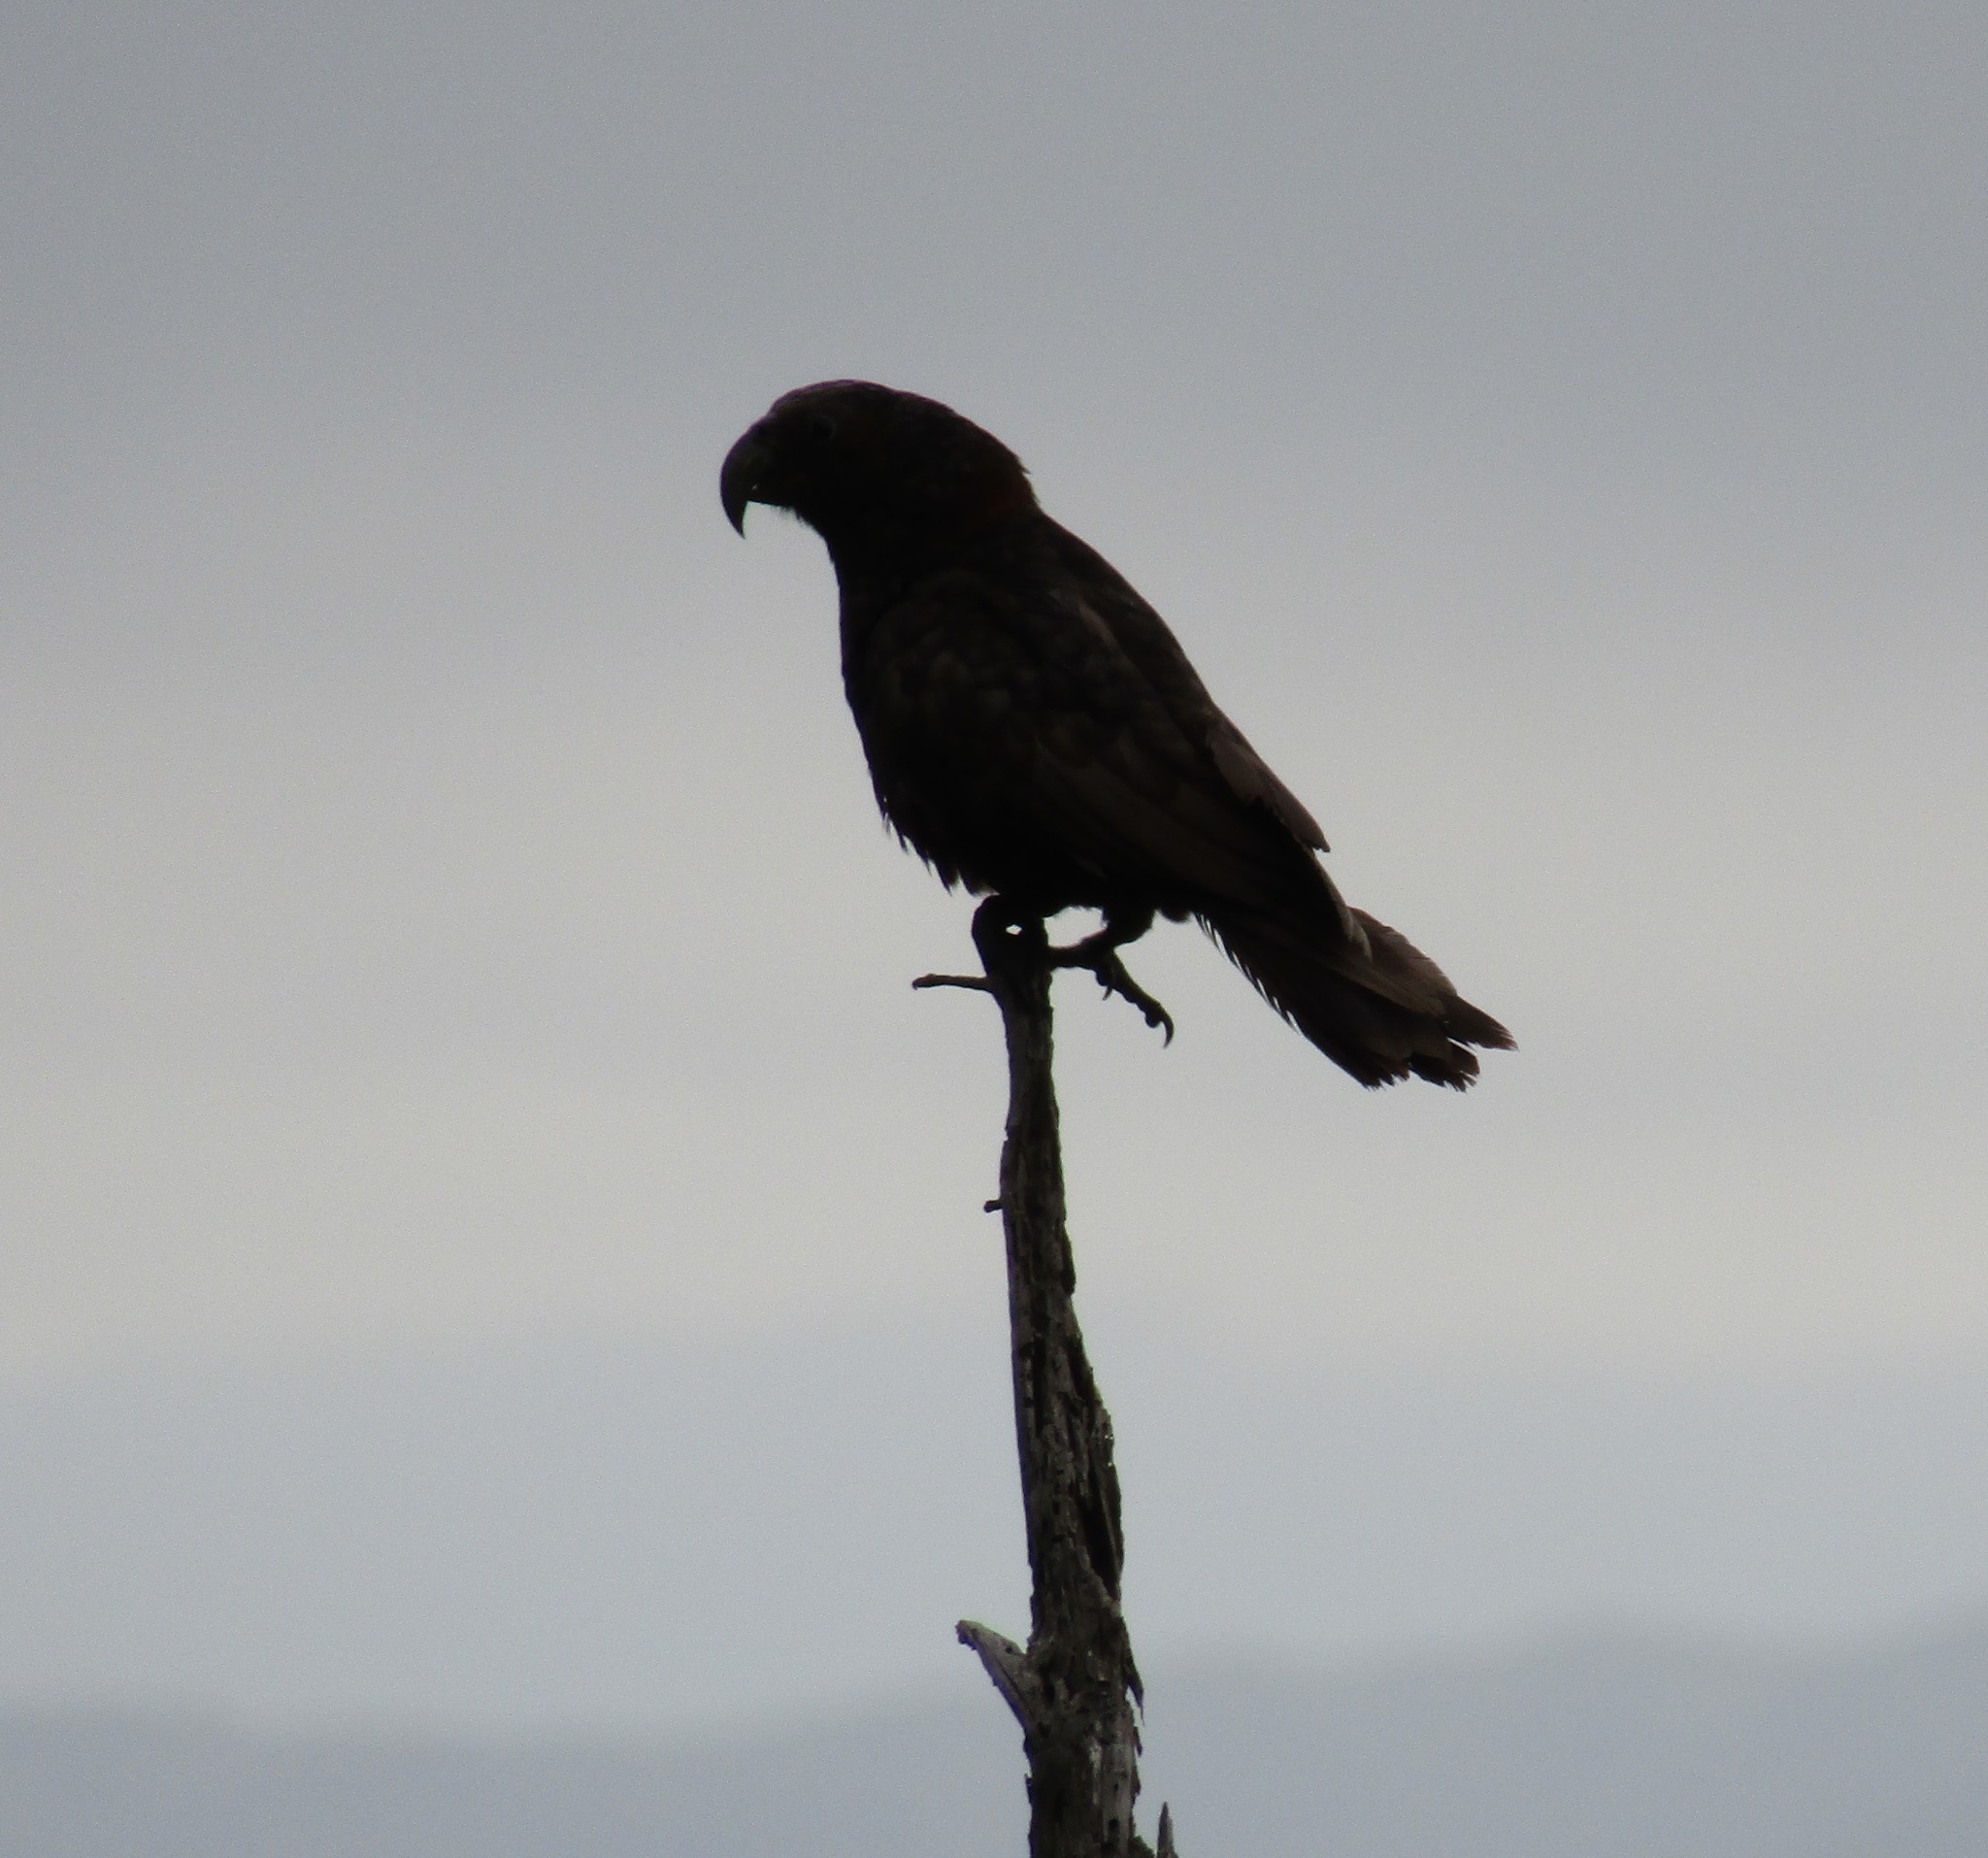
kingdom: Animalia
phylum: Chordata
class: Aves
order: Psittaciformes
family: Psittacidae
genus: Nestor
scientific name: Nestor meridionalis
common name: New zealand kaka
